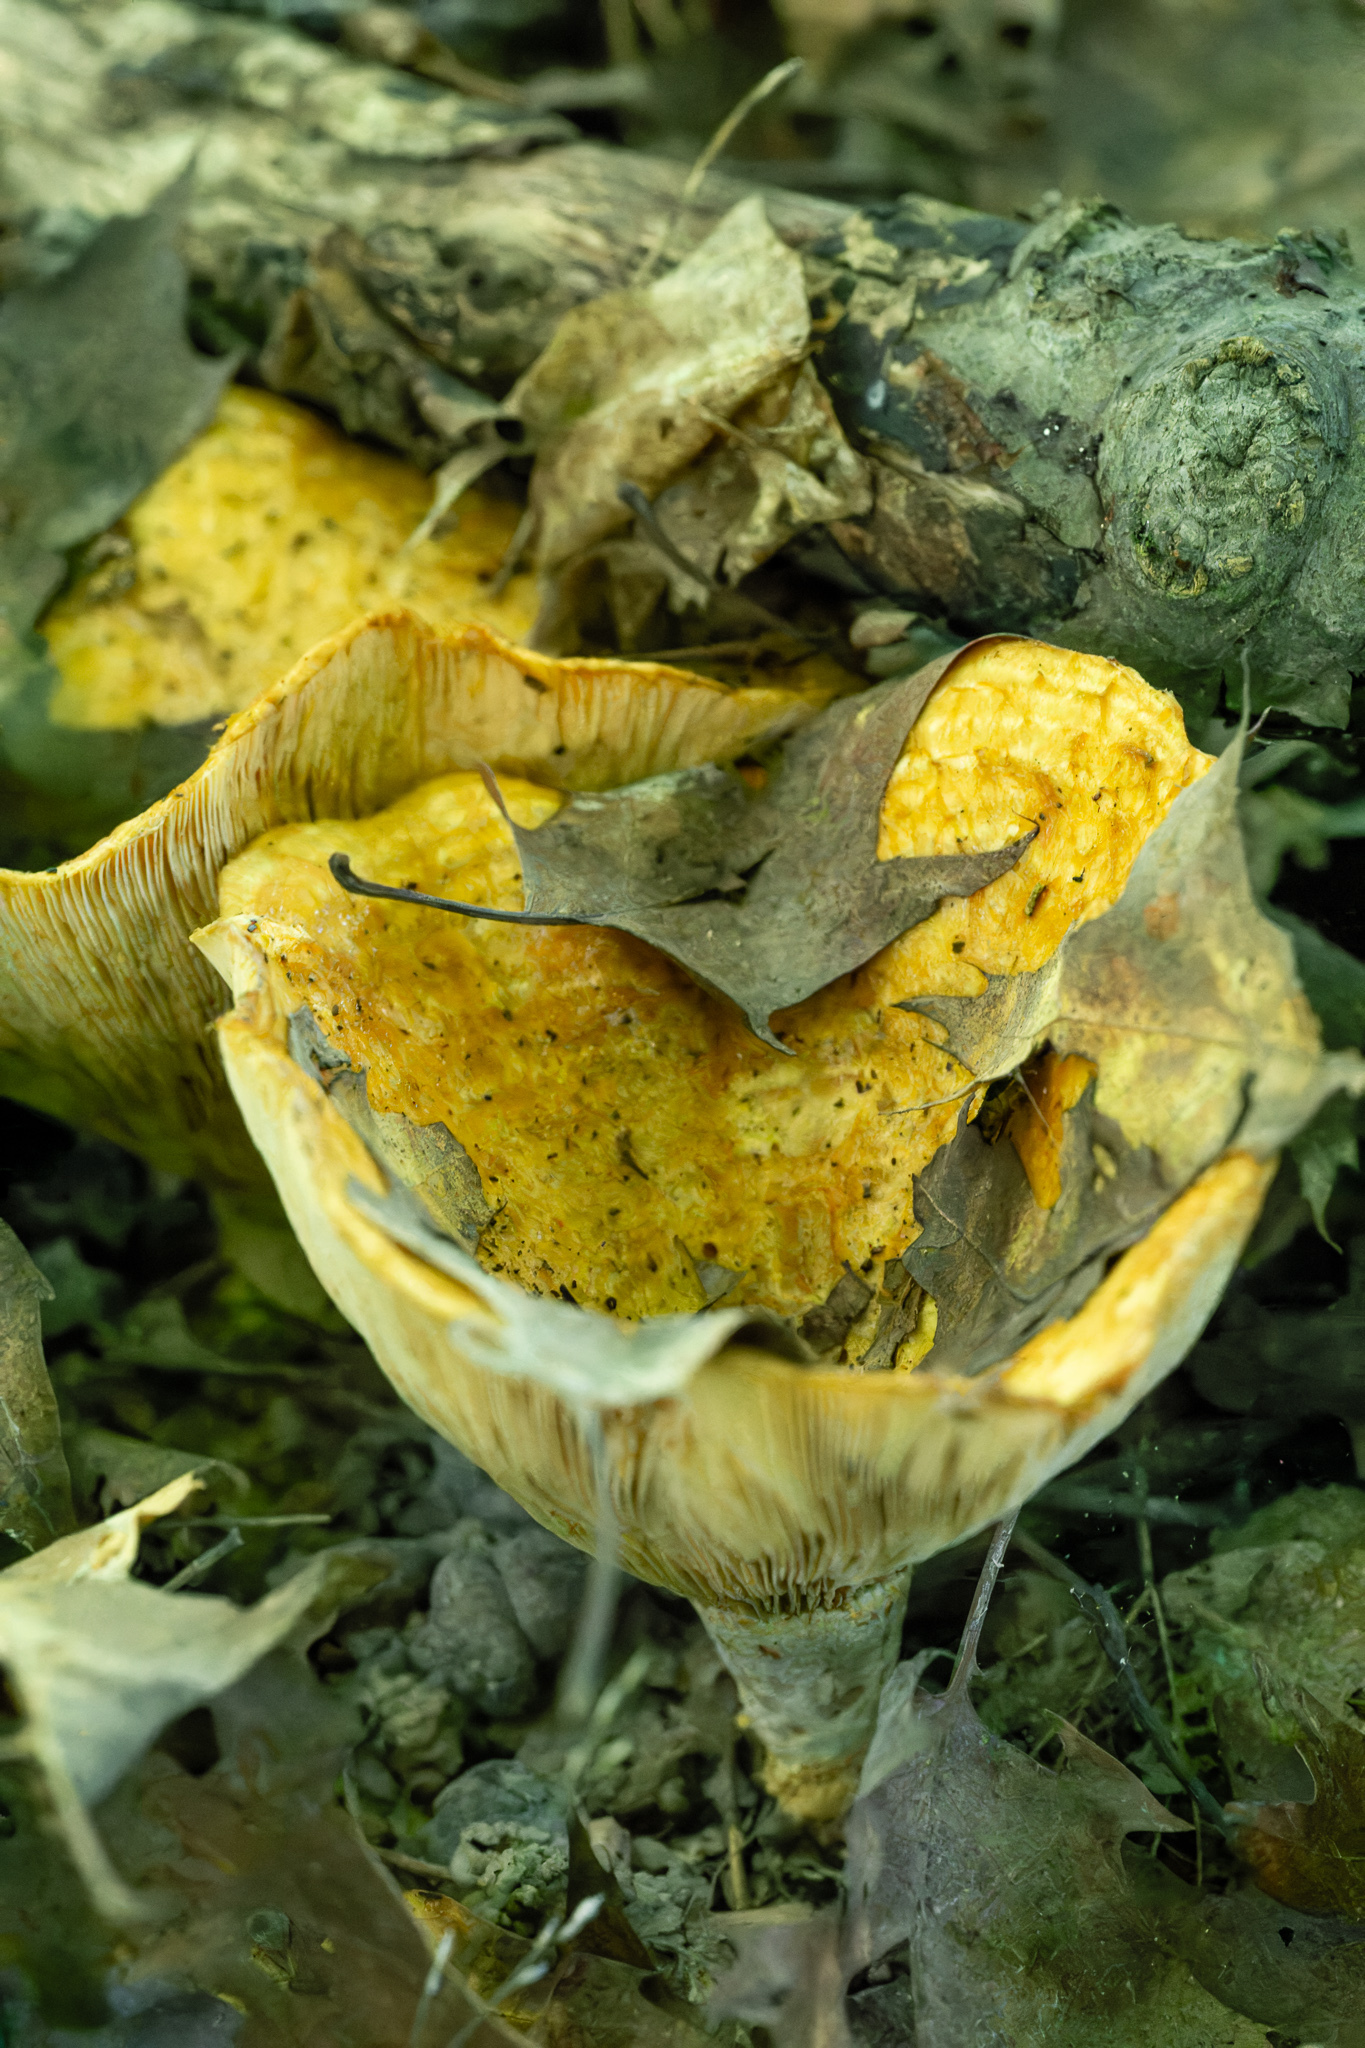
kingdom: Fungi
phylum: Basidiomycota
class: Agaricomycetes
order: Russulales
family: Russulaceae
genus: Lactarius
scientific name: Lactarius psammicola
